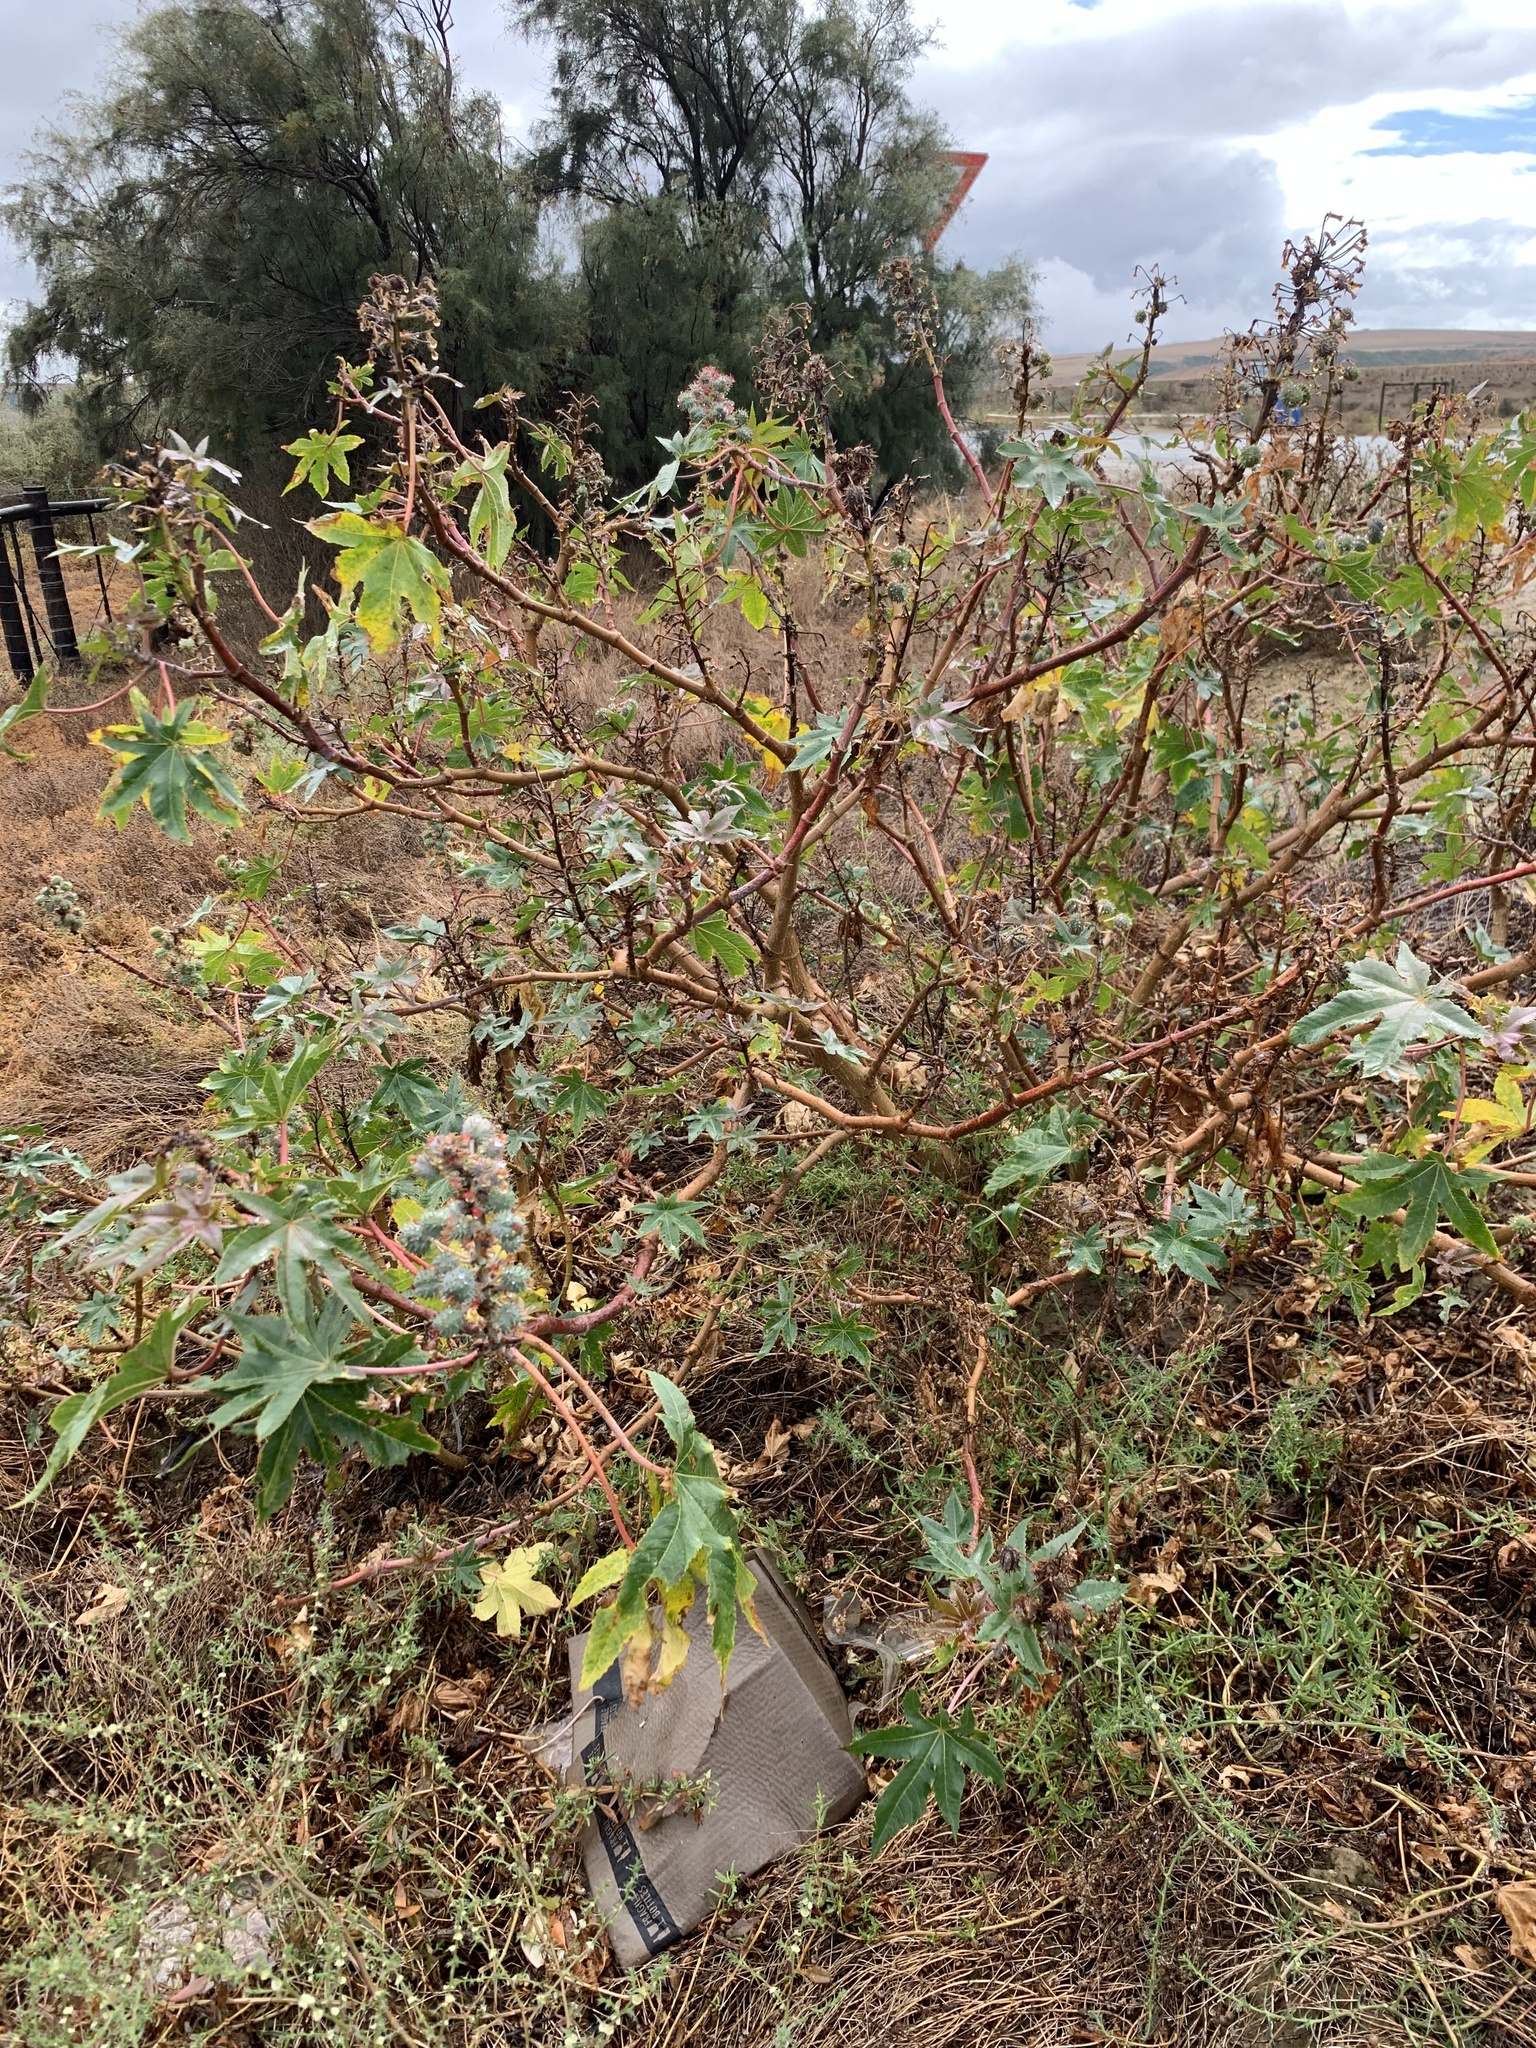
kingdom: Plantae
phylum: Tracheophyta
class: Magnoliopsida
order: Malpighiales
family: Euphorbiaceae
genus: Ricinus
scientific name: Ricinus communis
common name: Castor-oil-plant
